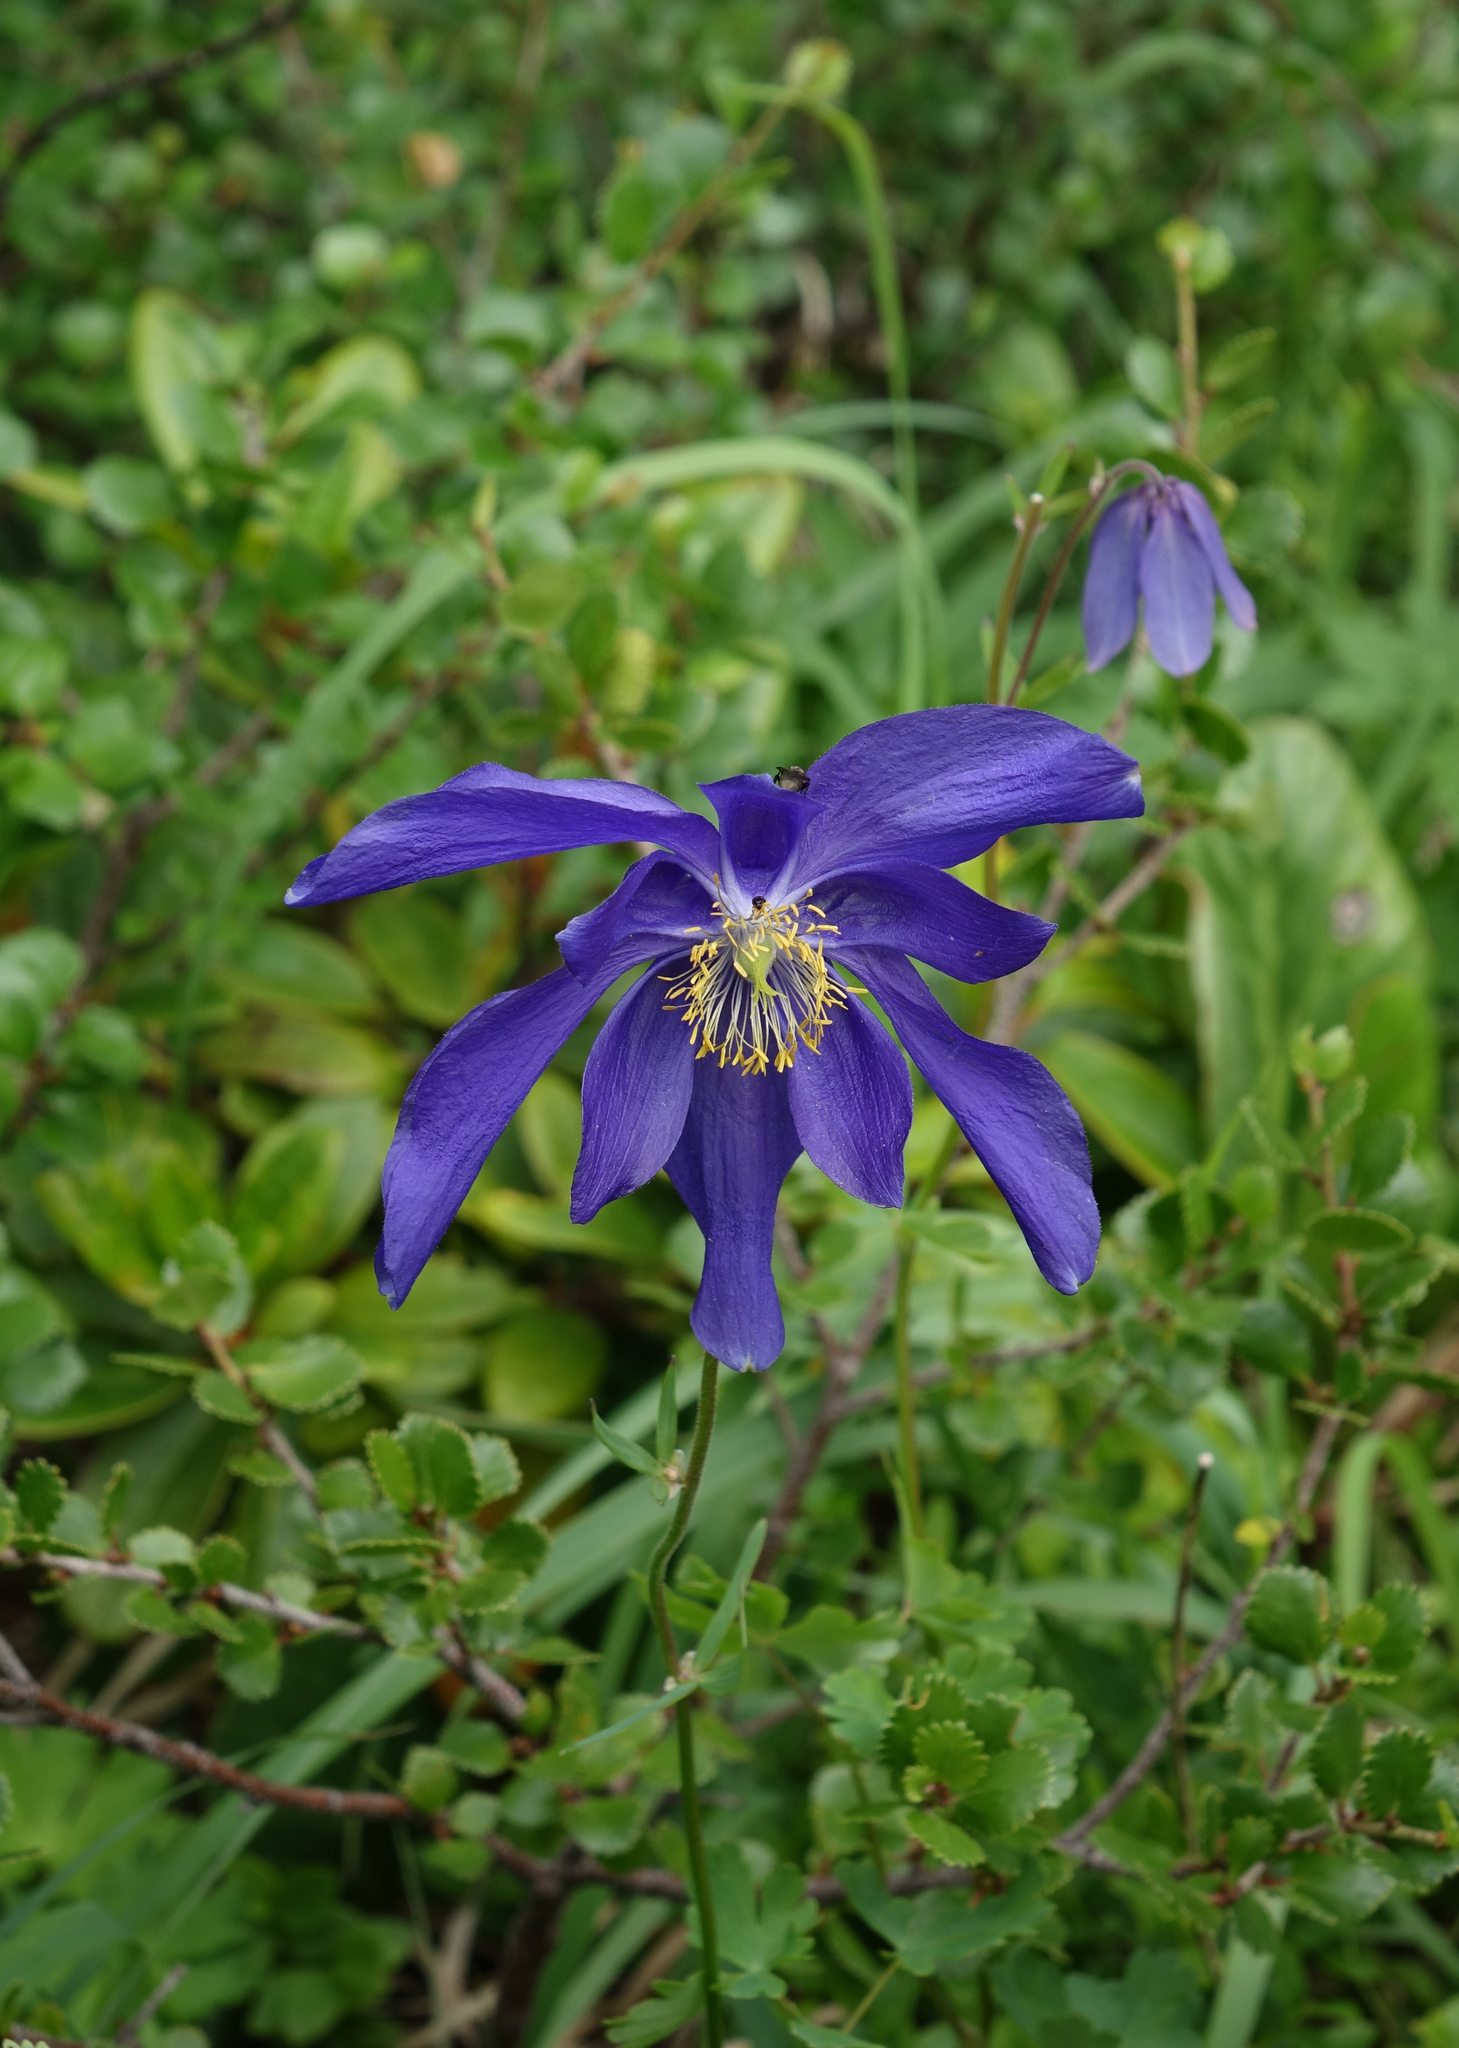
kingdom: Plantae
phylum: Tracheophyta
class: Magnoliopsida
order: Ranunculales
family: Ranunculaceae
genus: Aquilegia
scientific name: Aquilegia glandulosa
